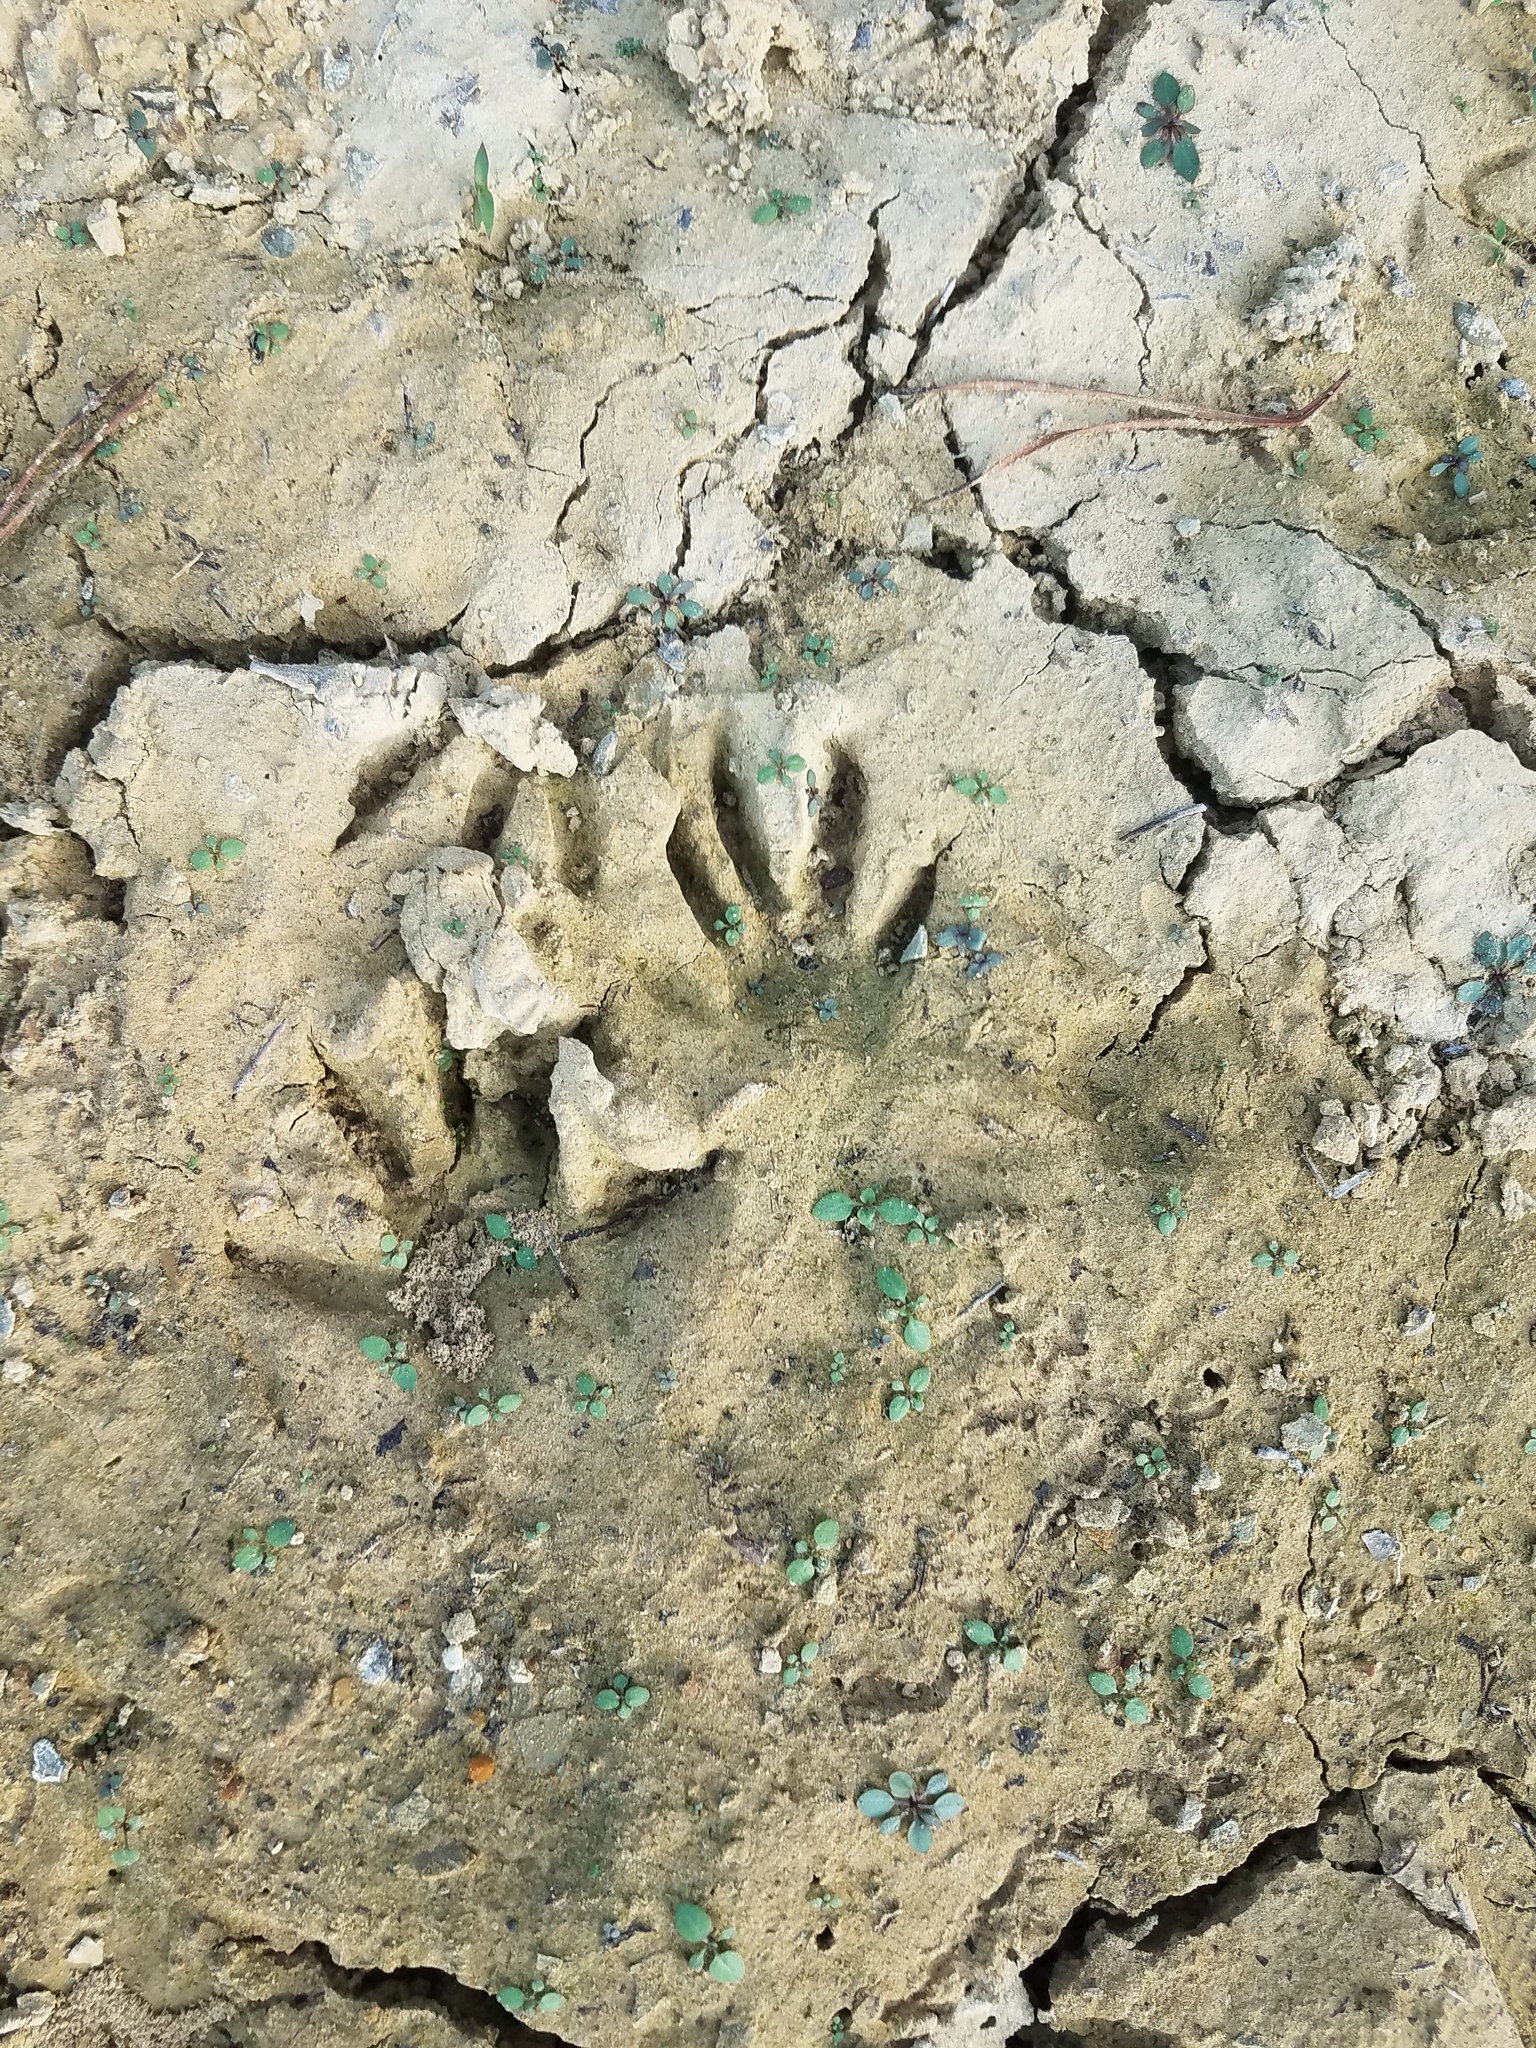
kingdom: Animalia
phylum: Chordata
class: Mammalia
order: Carnivora
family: Procyonidae
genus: Procyon
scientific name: Procyon lotor
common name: Raccoon
